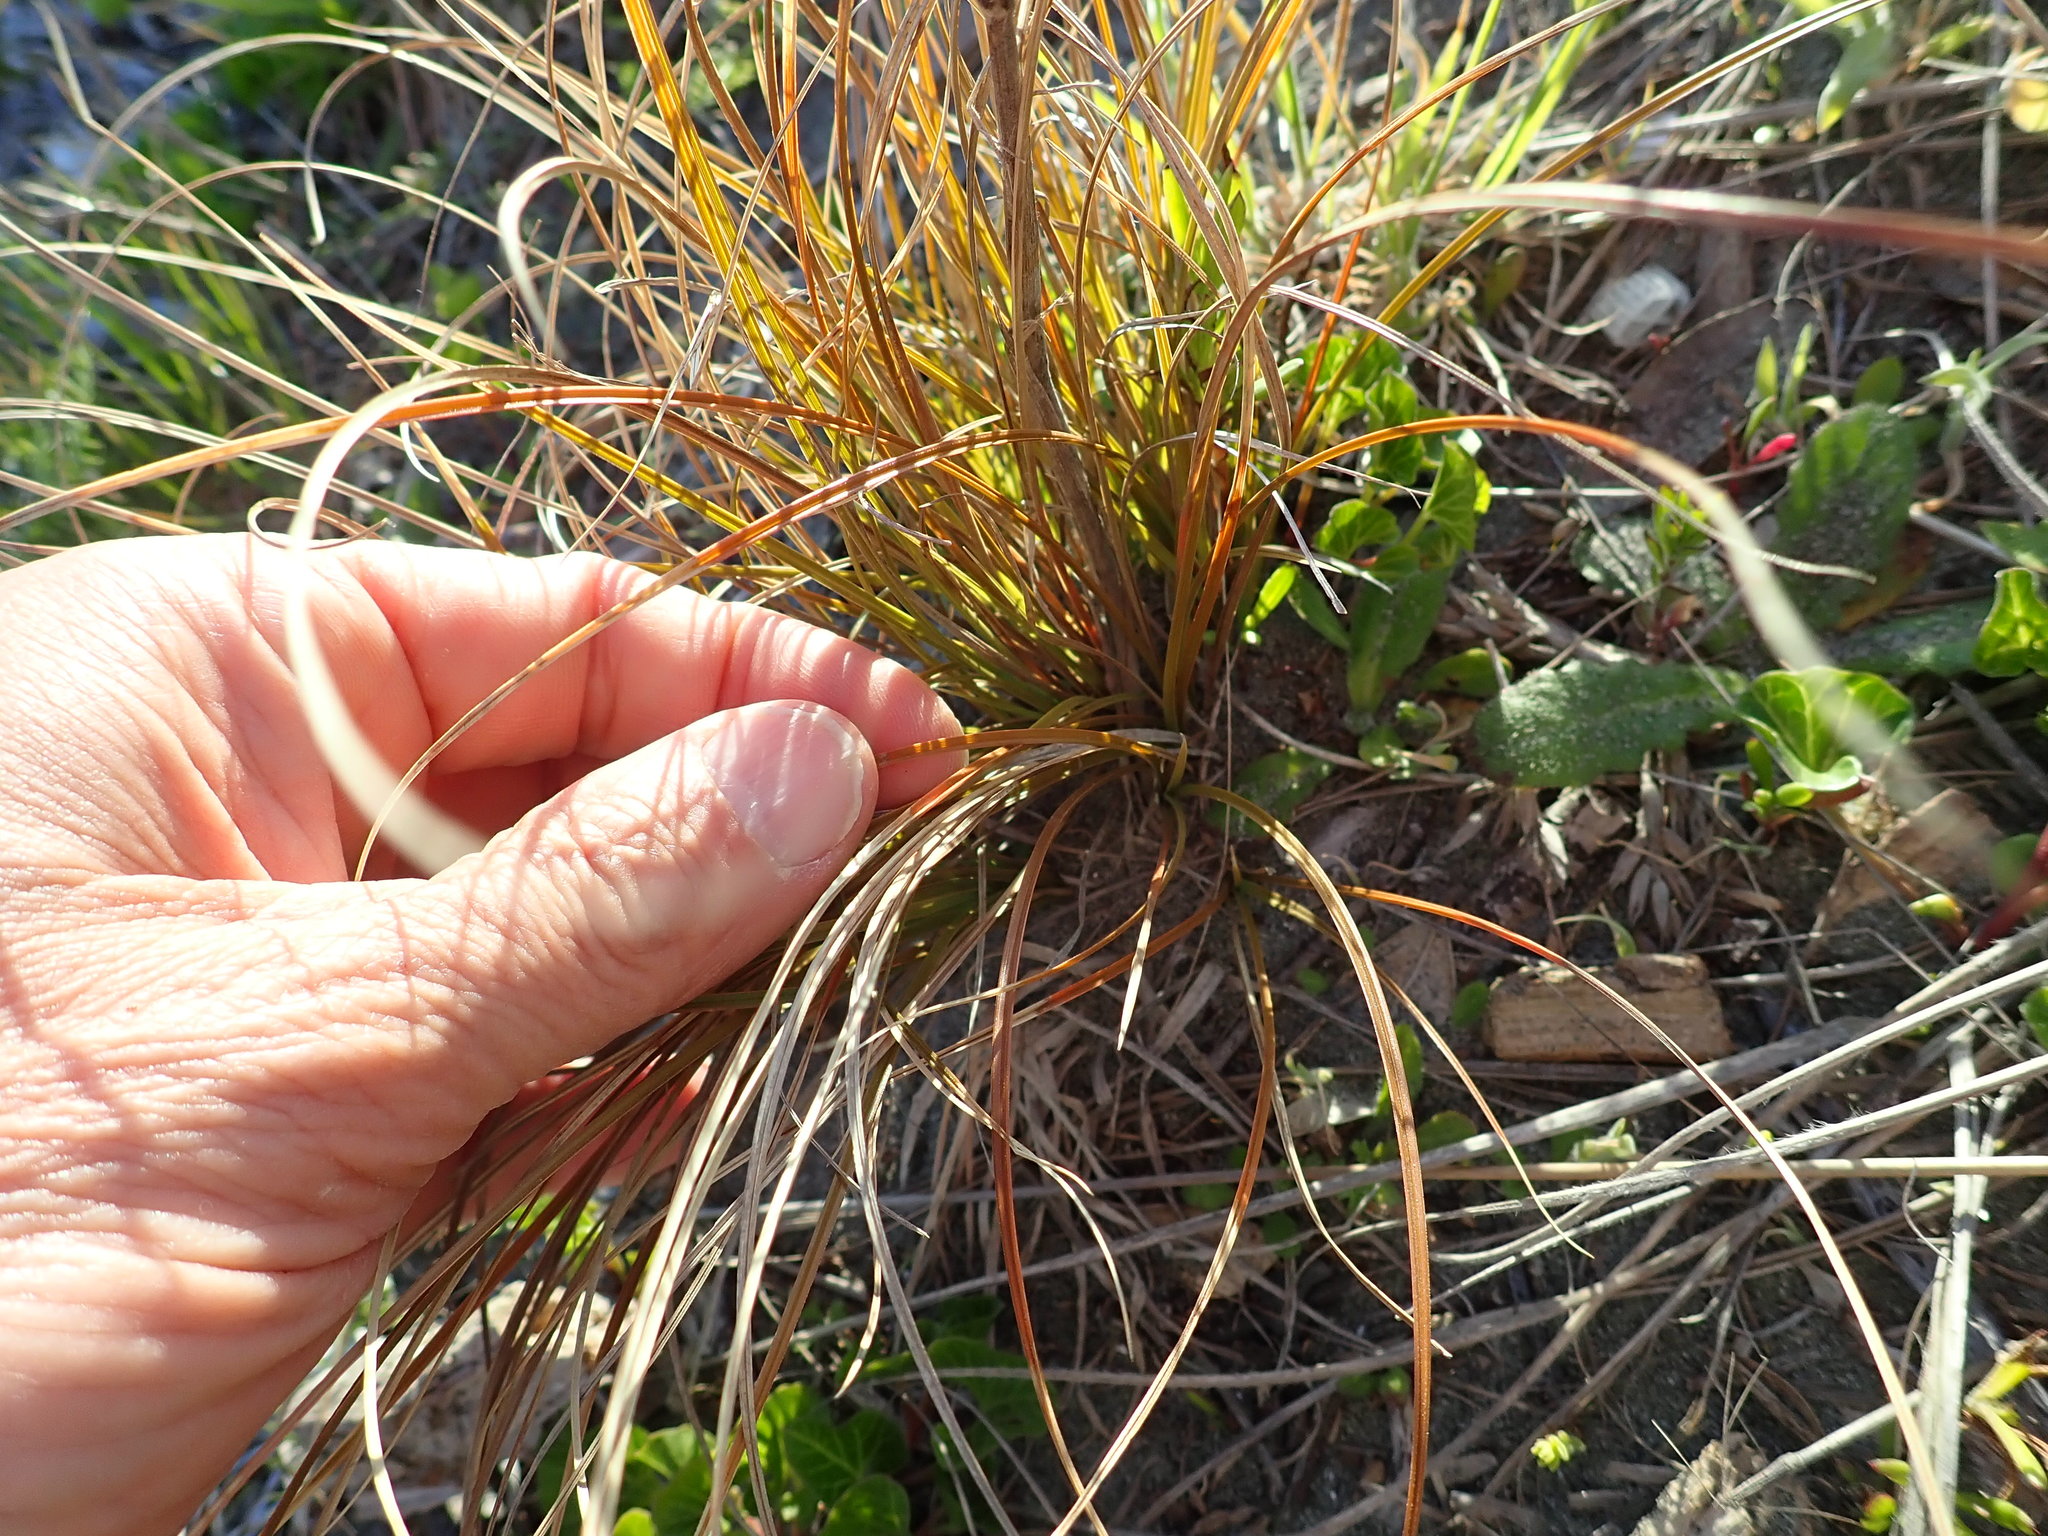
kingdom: Plantae
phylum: Tracheophyta
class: Liliopsida
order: Poales
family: Cyperaceae
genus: Carex
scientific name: Carex testacea
